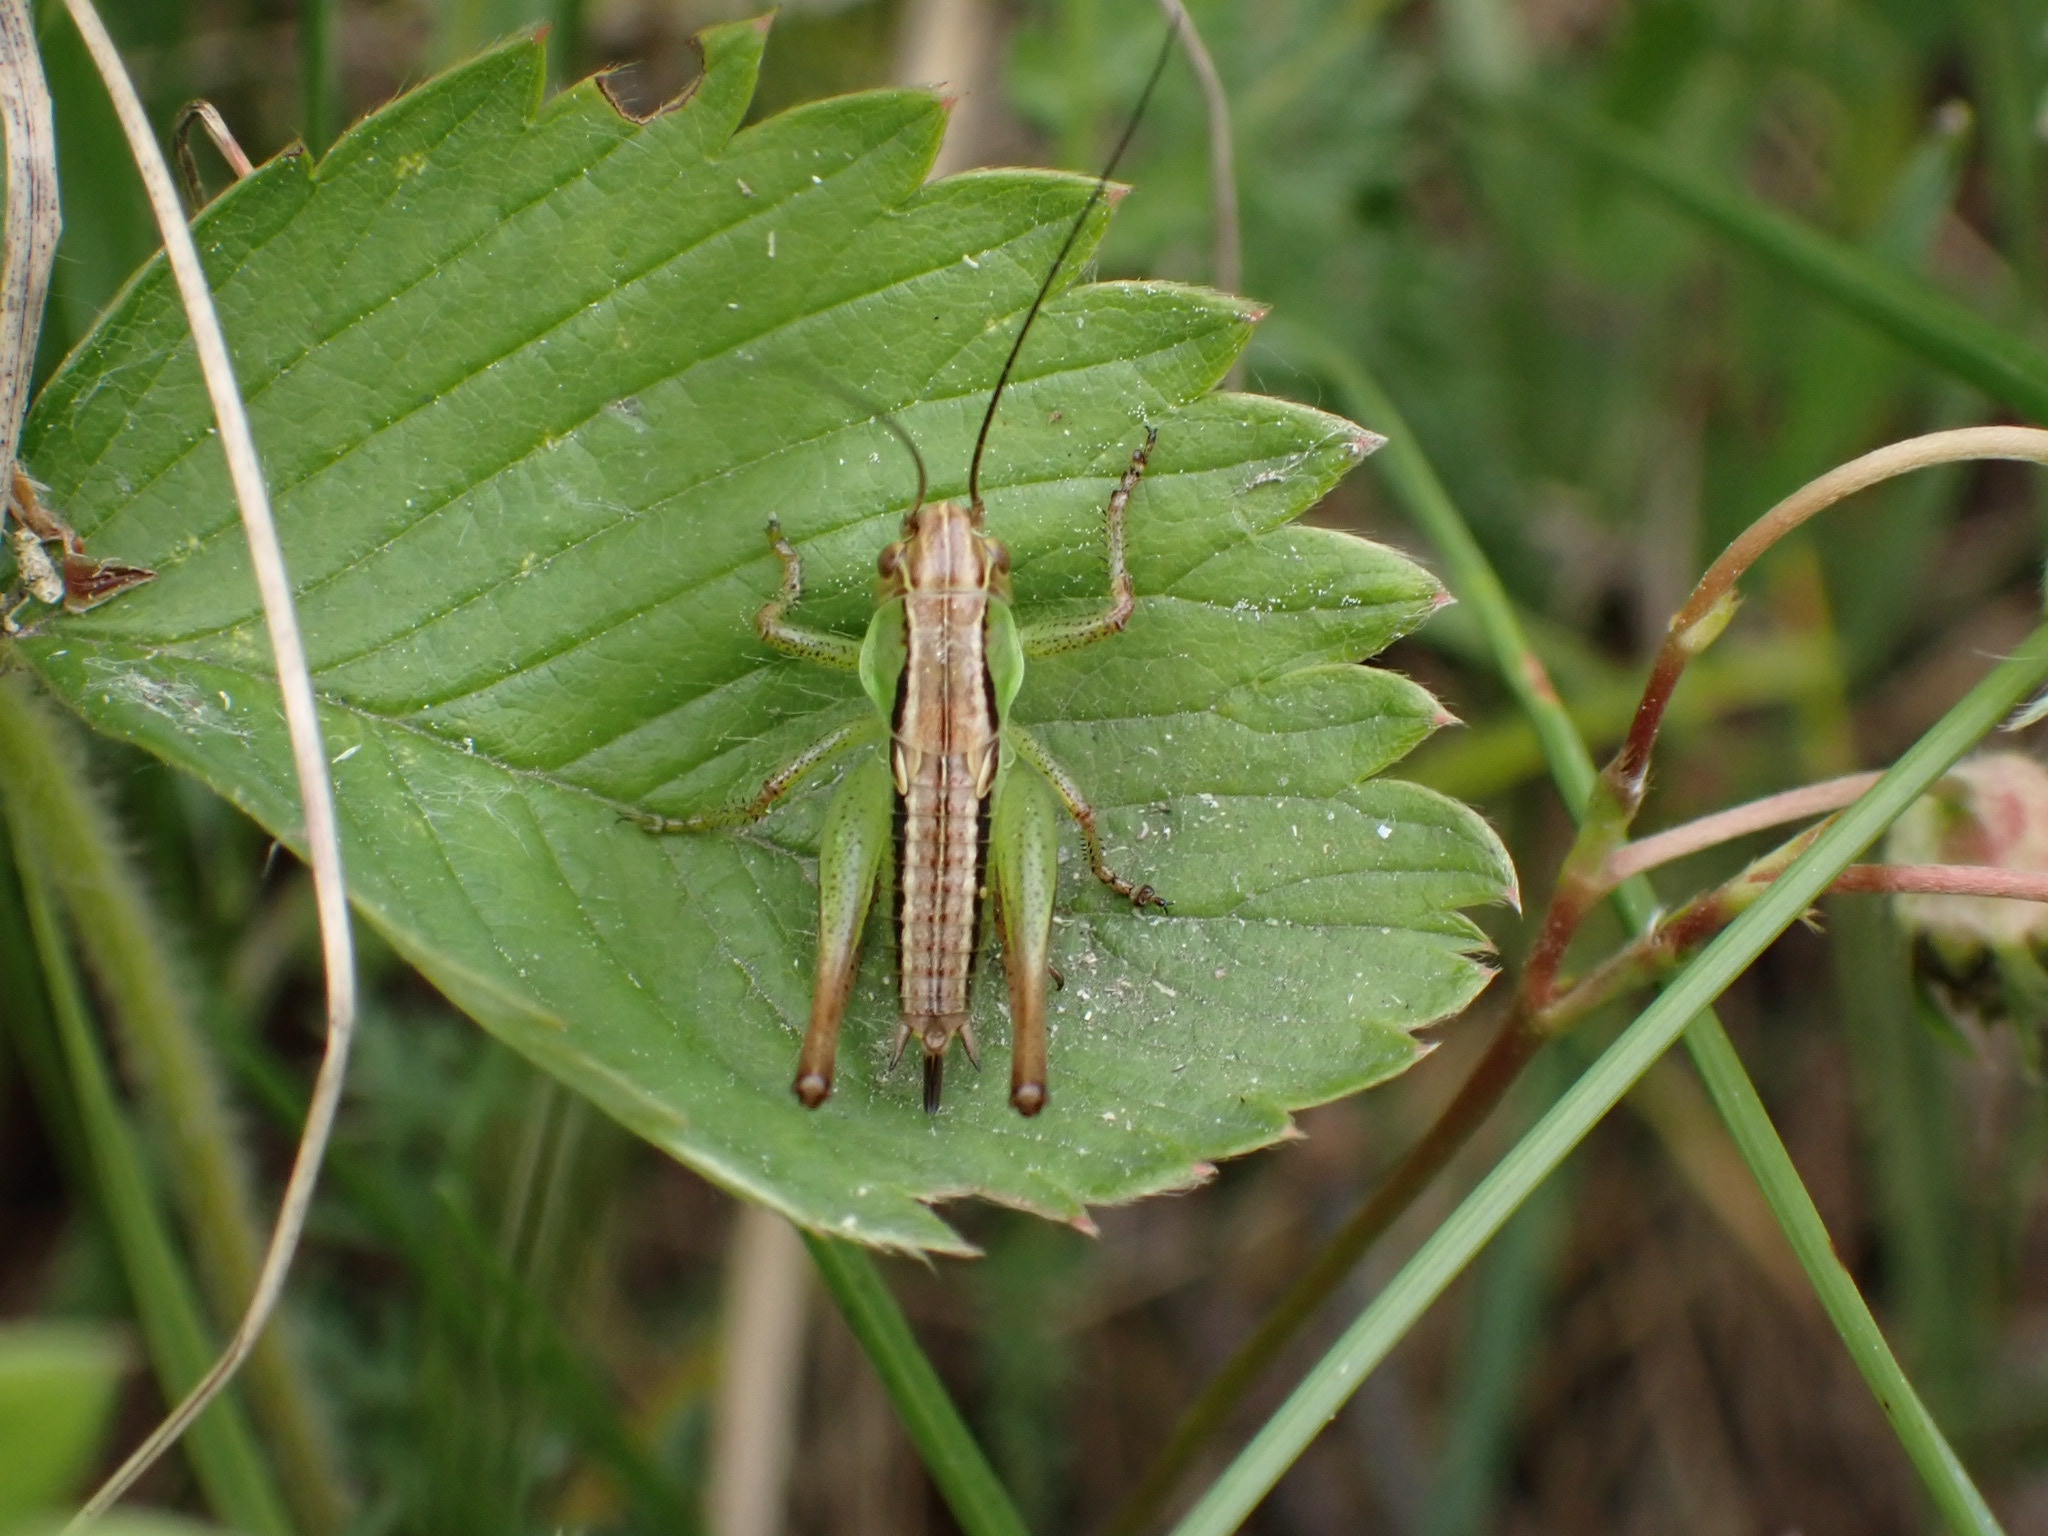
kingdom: Animalia
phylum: Arthropoda
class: Insecta
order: Orthoptera
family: Tettigoniidae
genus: Roeseliana
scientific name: Roeseliana roeselii
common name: Roesel's bush cricket
